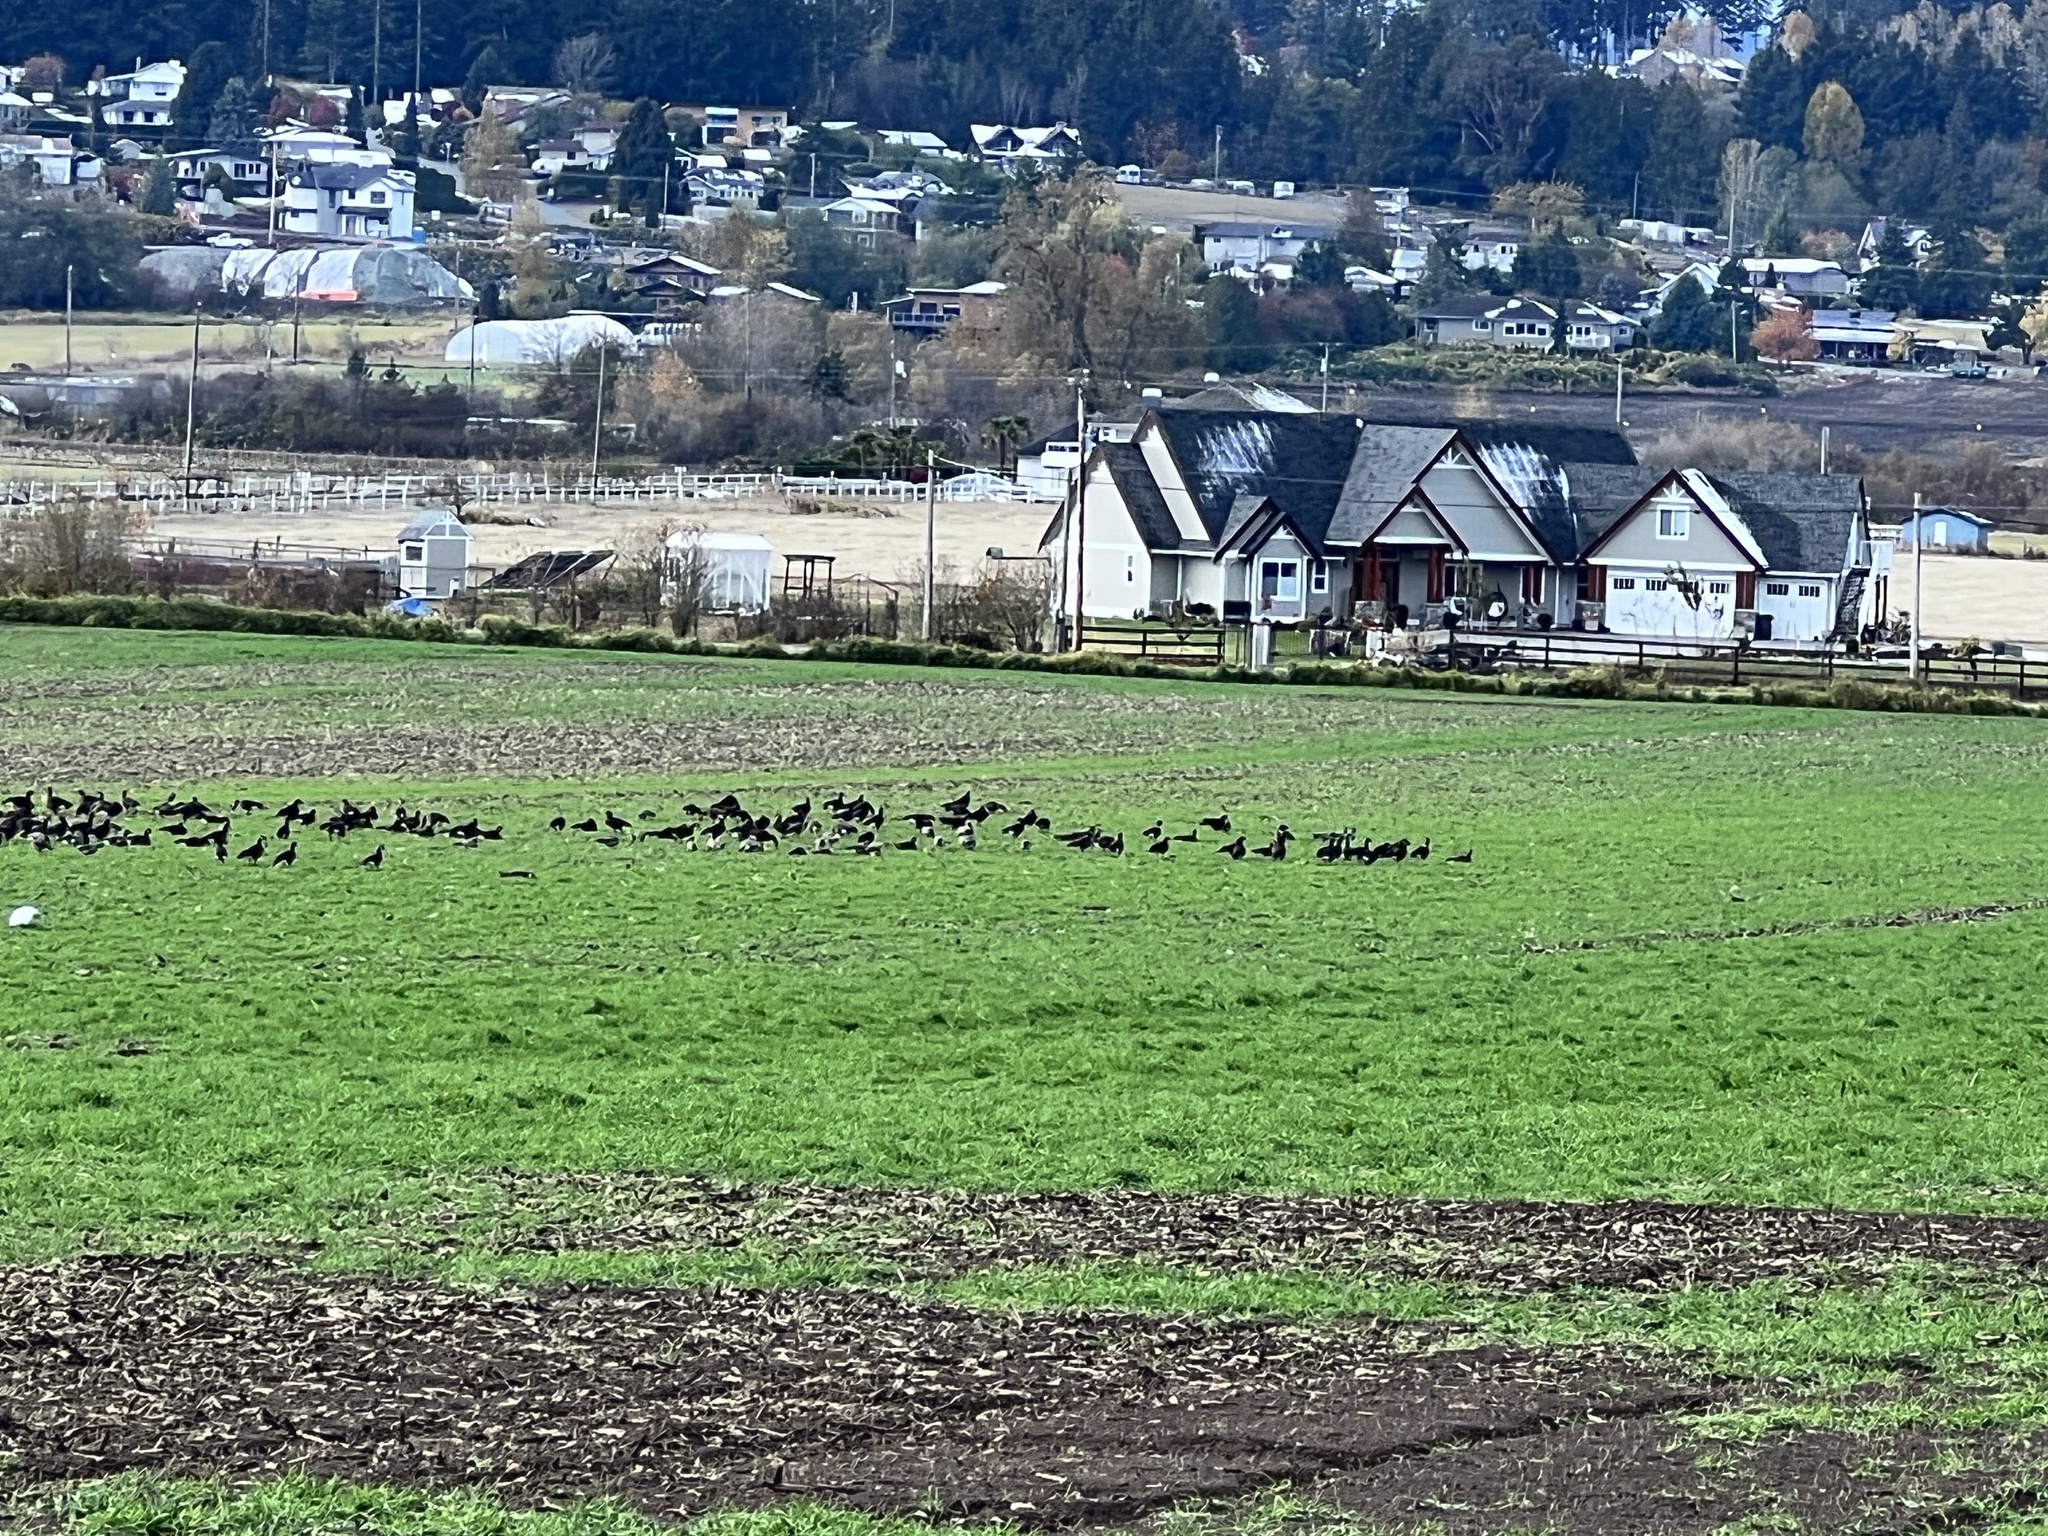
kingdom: Animalia
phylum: Chordata
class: Aves
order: Anseriformes
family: Anatidae
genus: Branta
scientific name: Branta canadensis
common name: Canada goose
